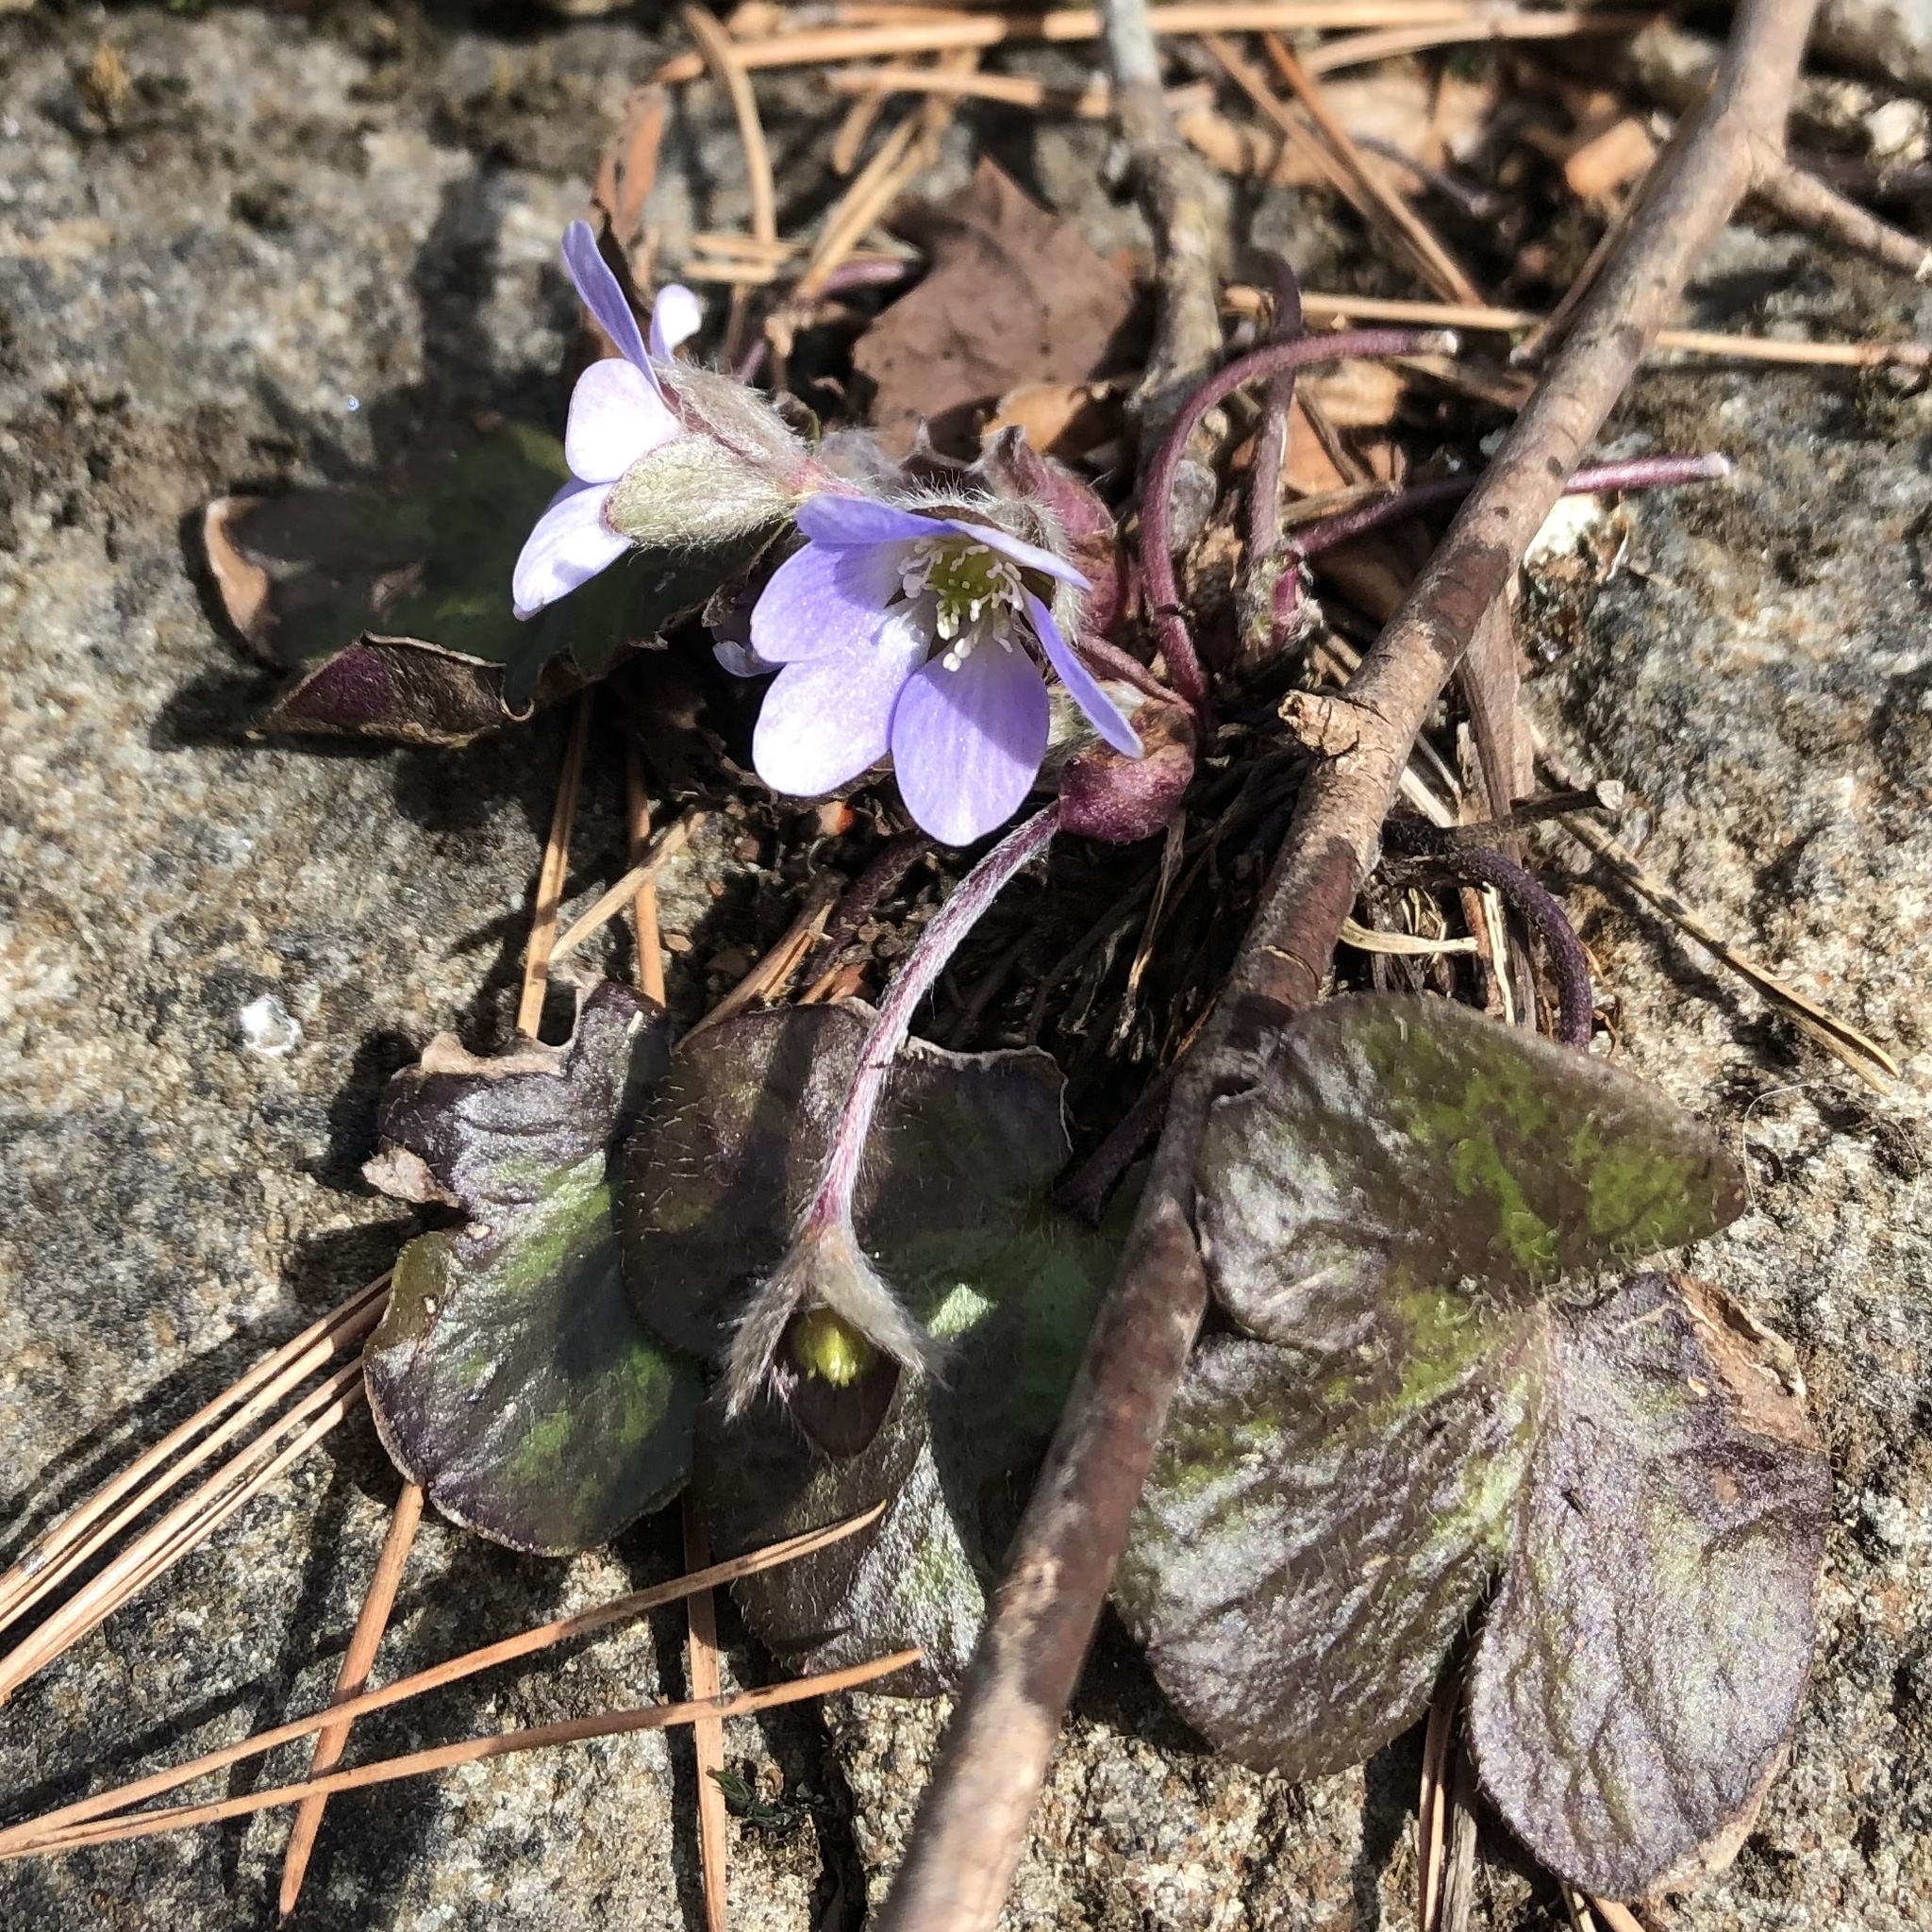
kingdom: Plantae
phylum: Tracheophyta
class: Magnoliopsida
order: Ranunculales
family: Ranunculaceae
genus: Hepatica
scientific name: Hepatica americana
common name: American hepatica
